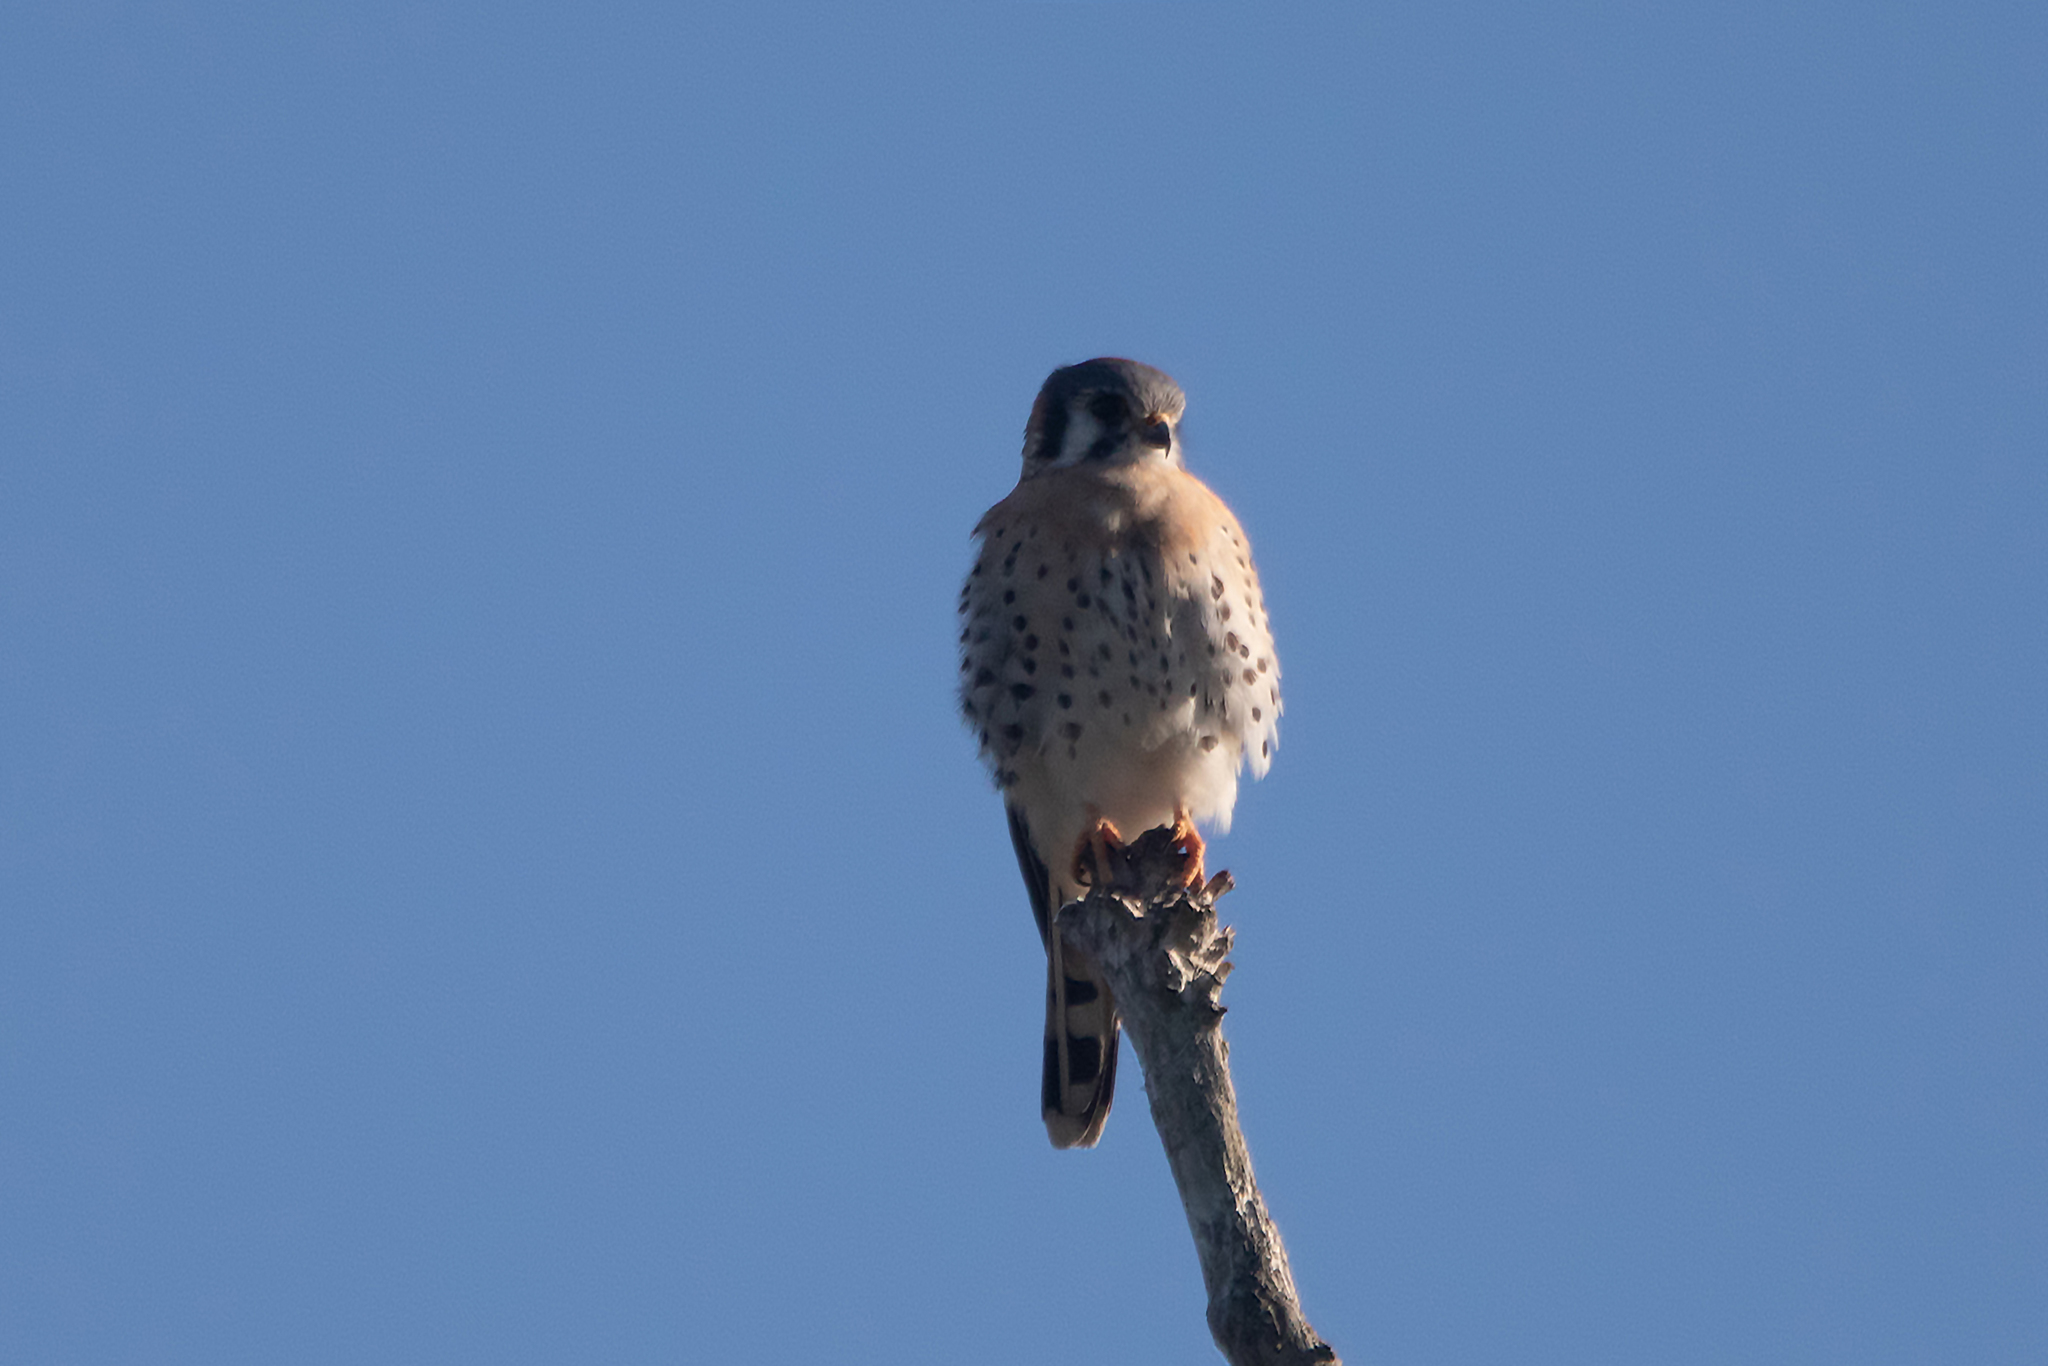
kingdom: Animalia
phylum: Chordata
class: Aves
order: Falconiformes
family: Falconidae
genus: Falco
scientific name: Falco sparverius
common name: American kestrel
